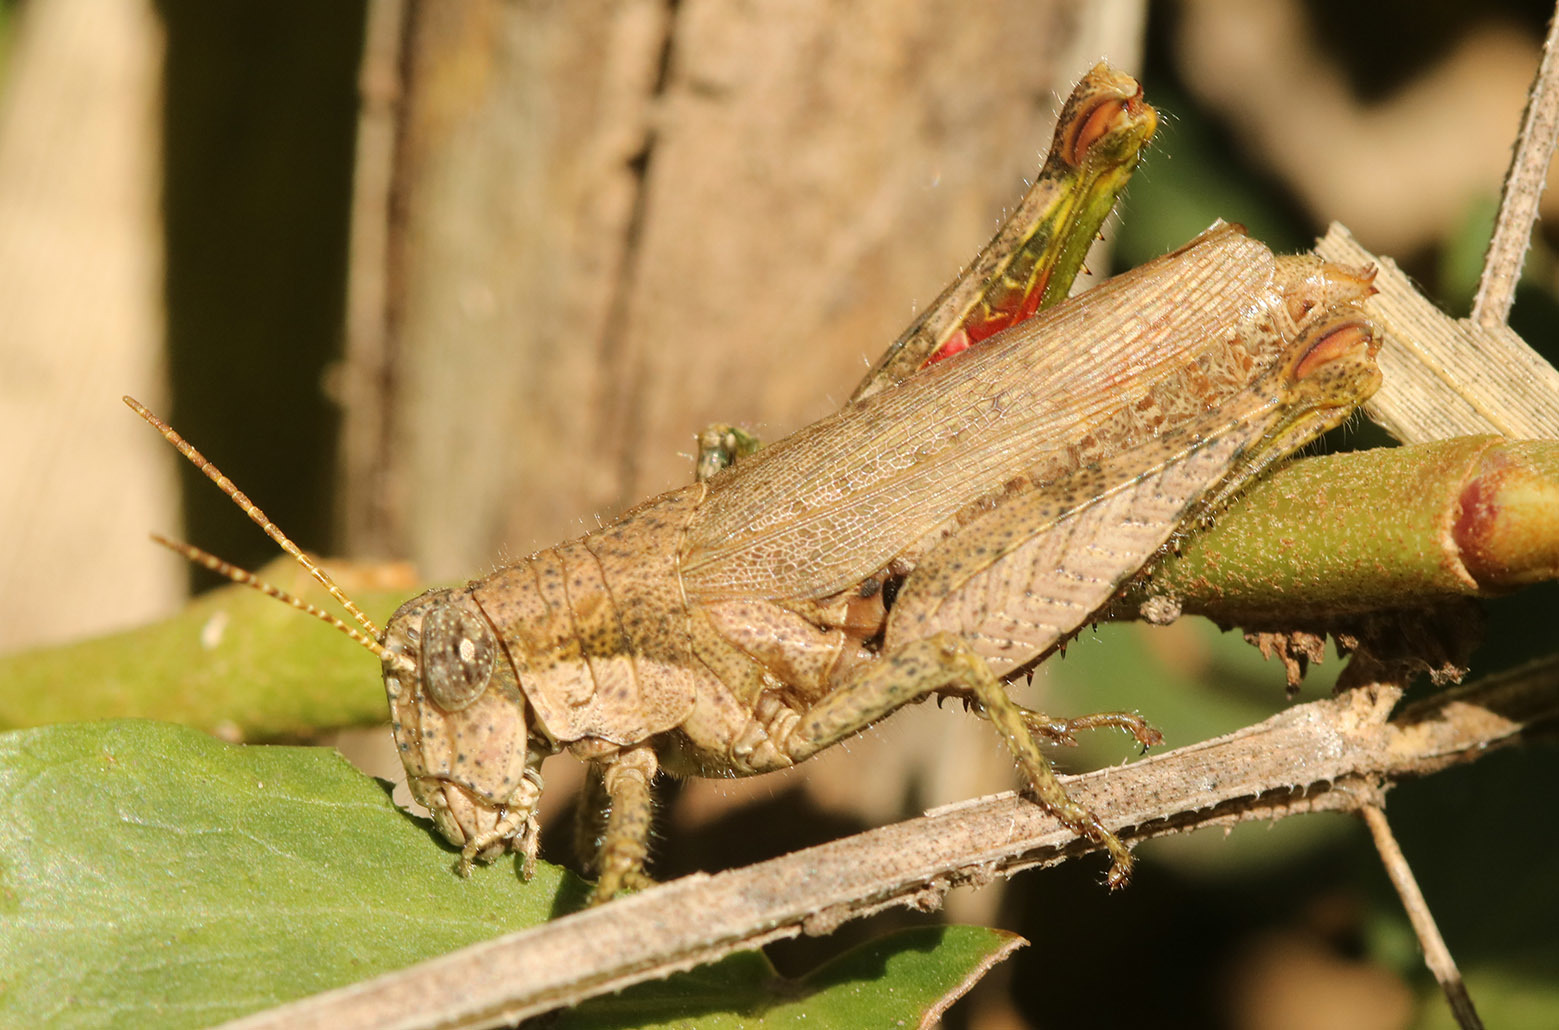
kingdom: Animalia
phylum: Arthropoda
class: Insecta
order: Orthoptera
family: Acrididae
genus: Ronderosia
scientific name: Ronderosia bergii
